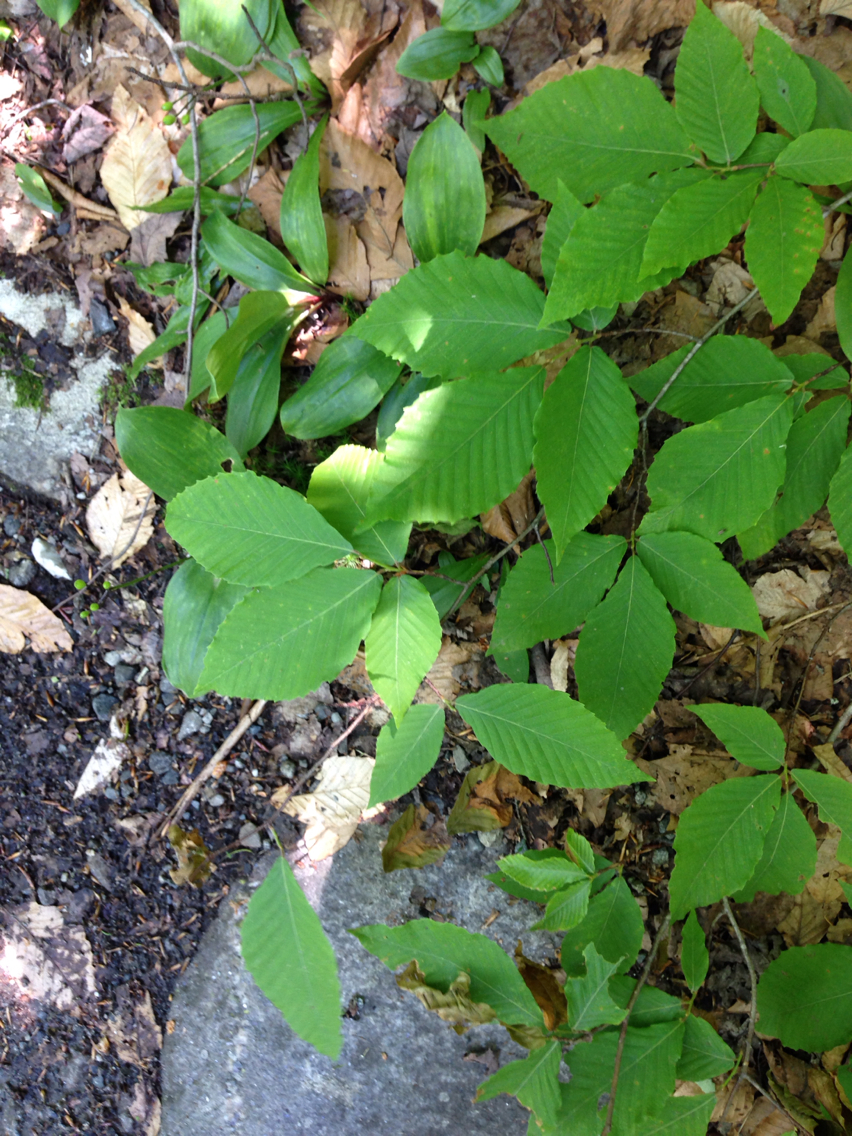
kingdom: Plantae
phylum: Tracheophyta
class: Magnoliopsida
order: Fagales
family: Fagaceae
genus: Fagus
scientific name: Fagus grandifolia
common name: American beech
